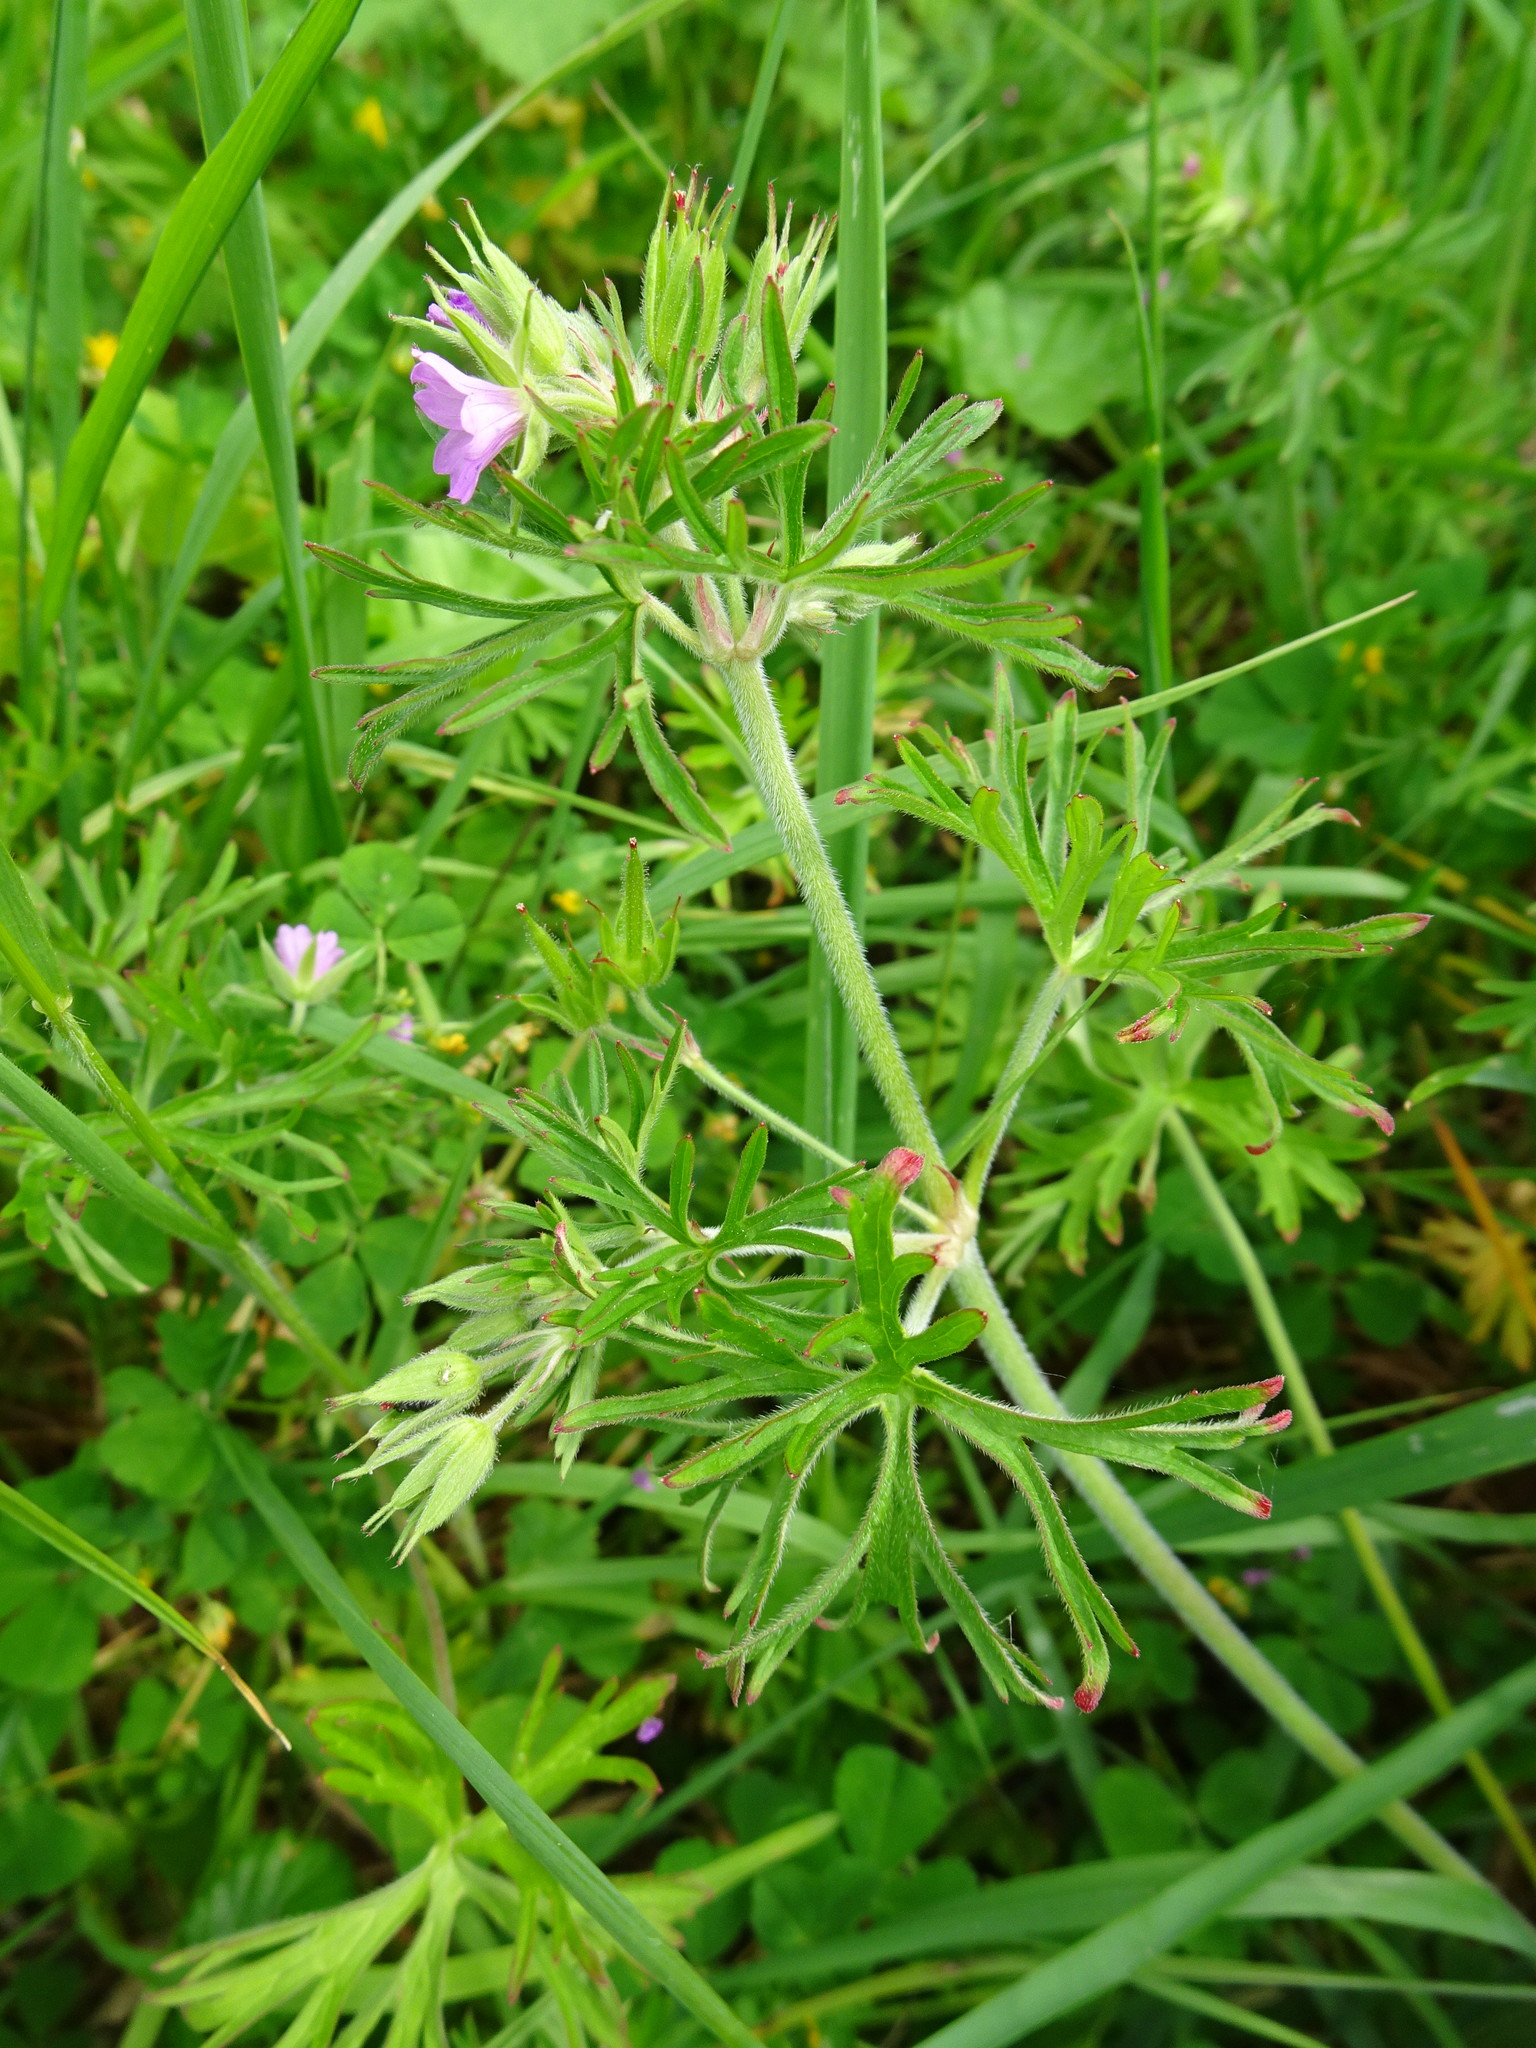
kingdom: Plantae
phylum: Tracheophyta
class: Magnoliopsida
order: Geraniales
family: Geraniaceae
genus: Geranium
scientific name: Geranium dissectum
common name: Cut-leaved crane's-bill
